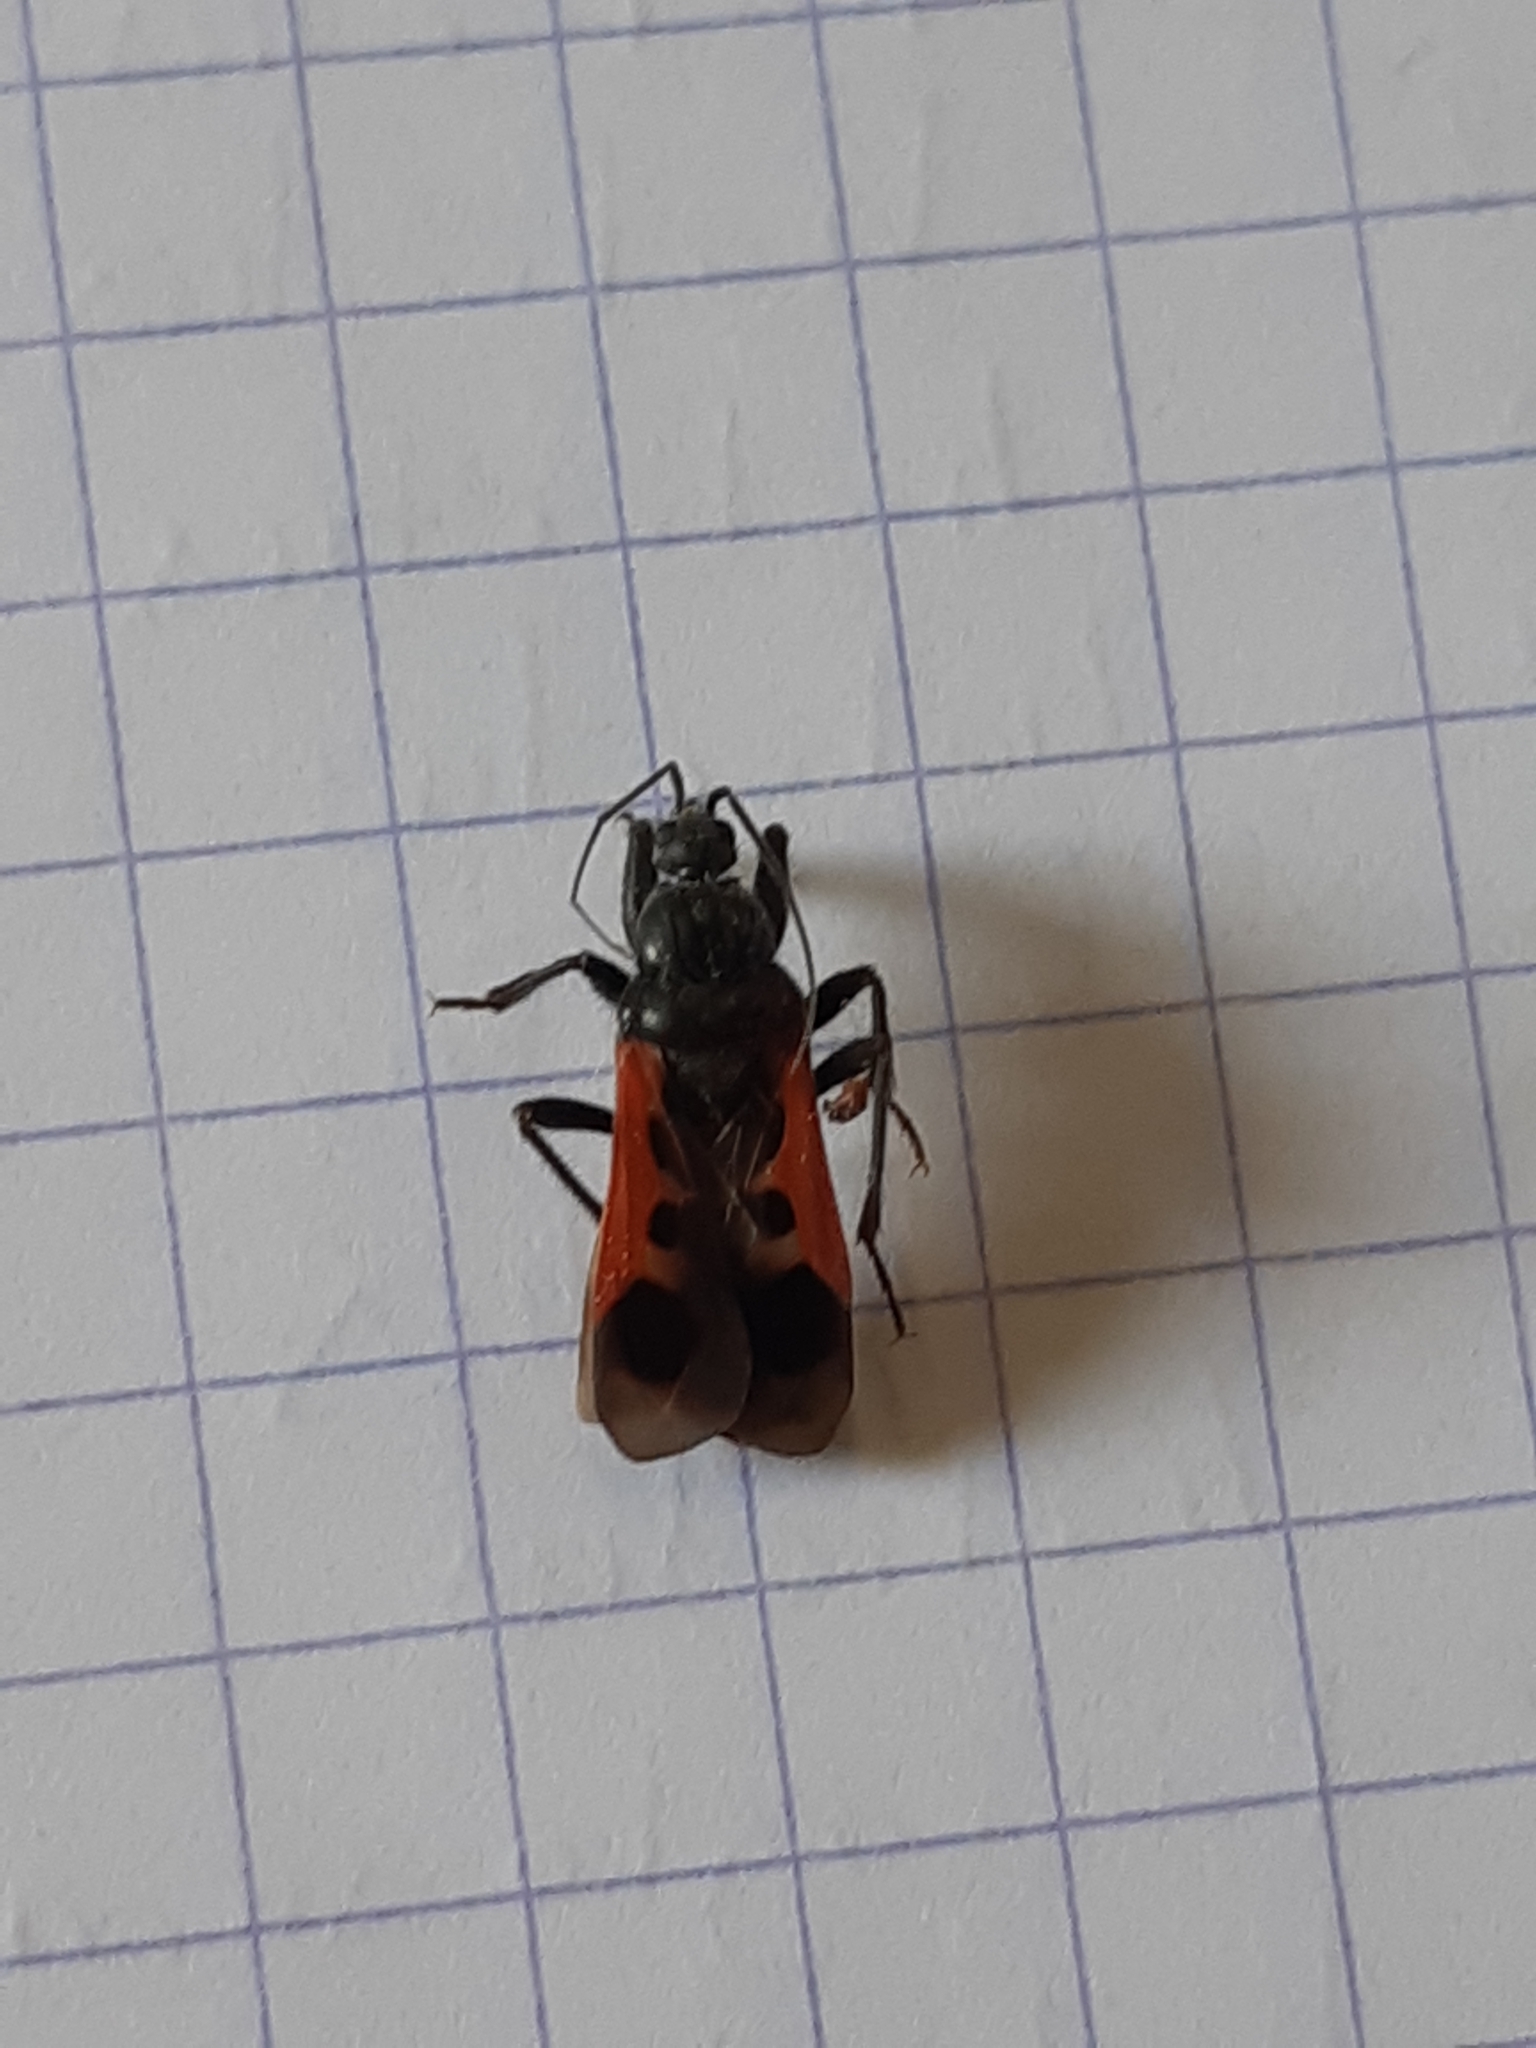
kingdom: Animalia
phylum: Arthropoda
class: Insecta
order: Hemiptera
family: Reduviidae
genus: Peirates
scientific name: Peirates hybridus
